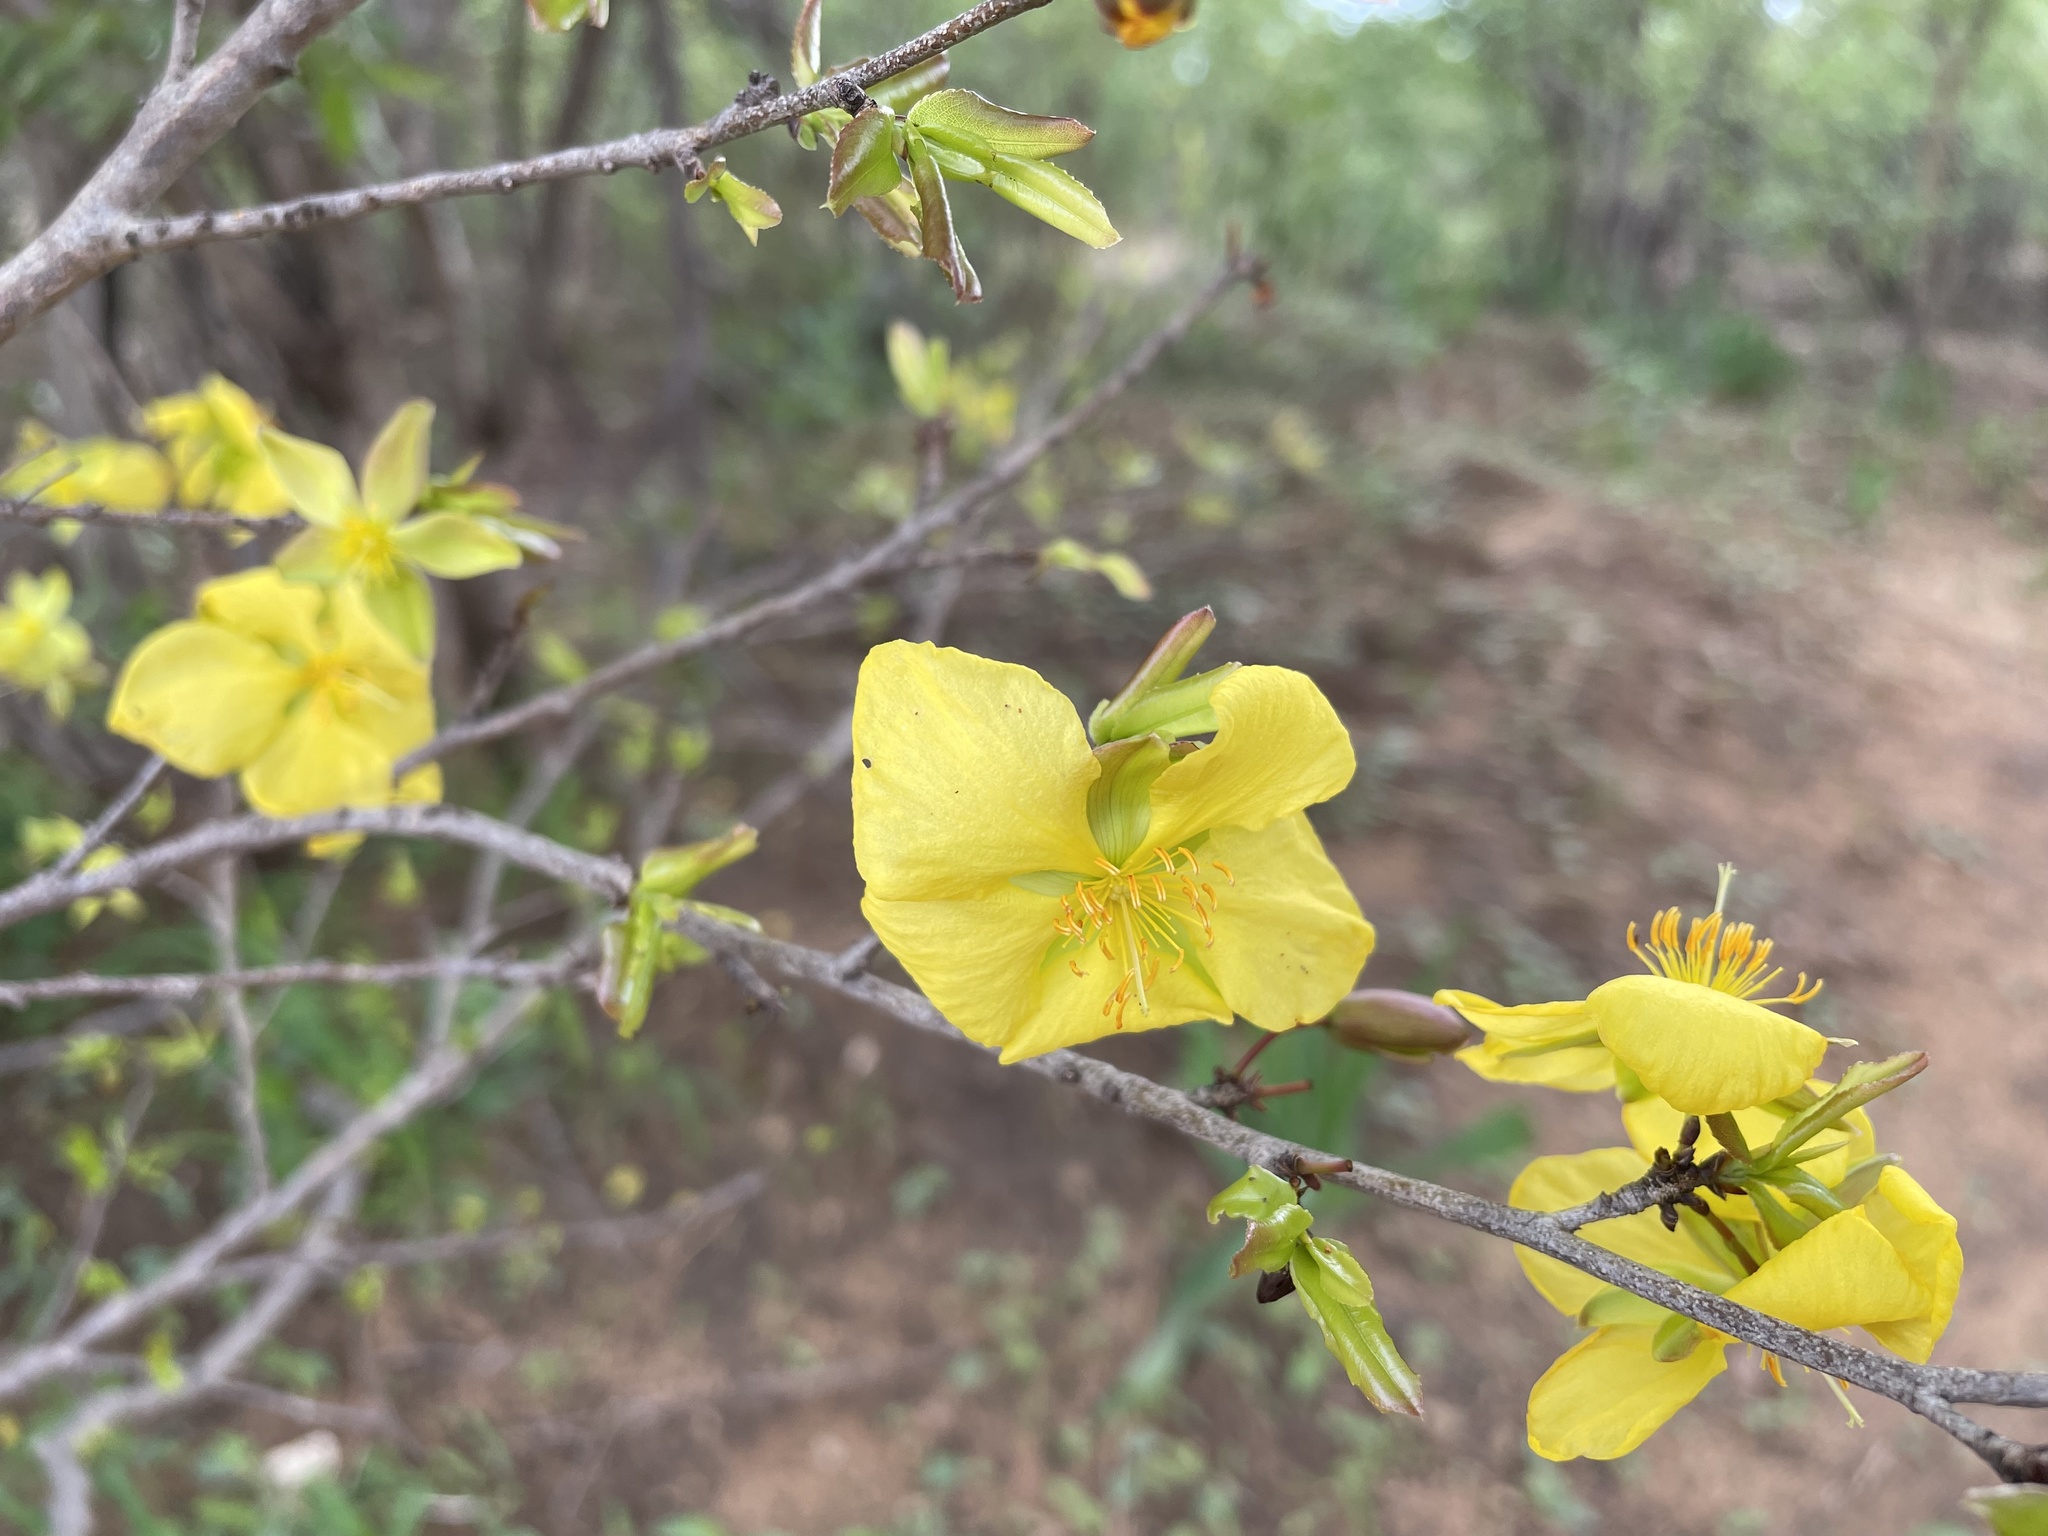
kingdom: Plantae
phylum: Tracheophyta
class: Magnoliopsida
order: Malpighiales
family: Ochnaceae
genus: Ochna
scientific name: Ochna cinnabarina
